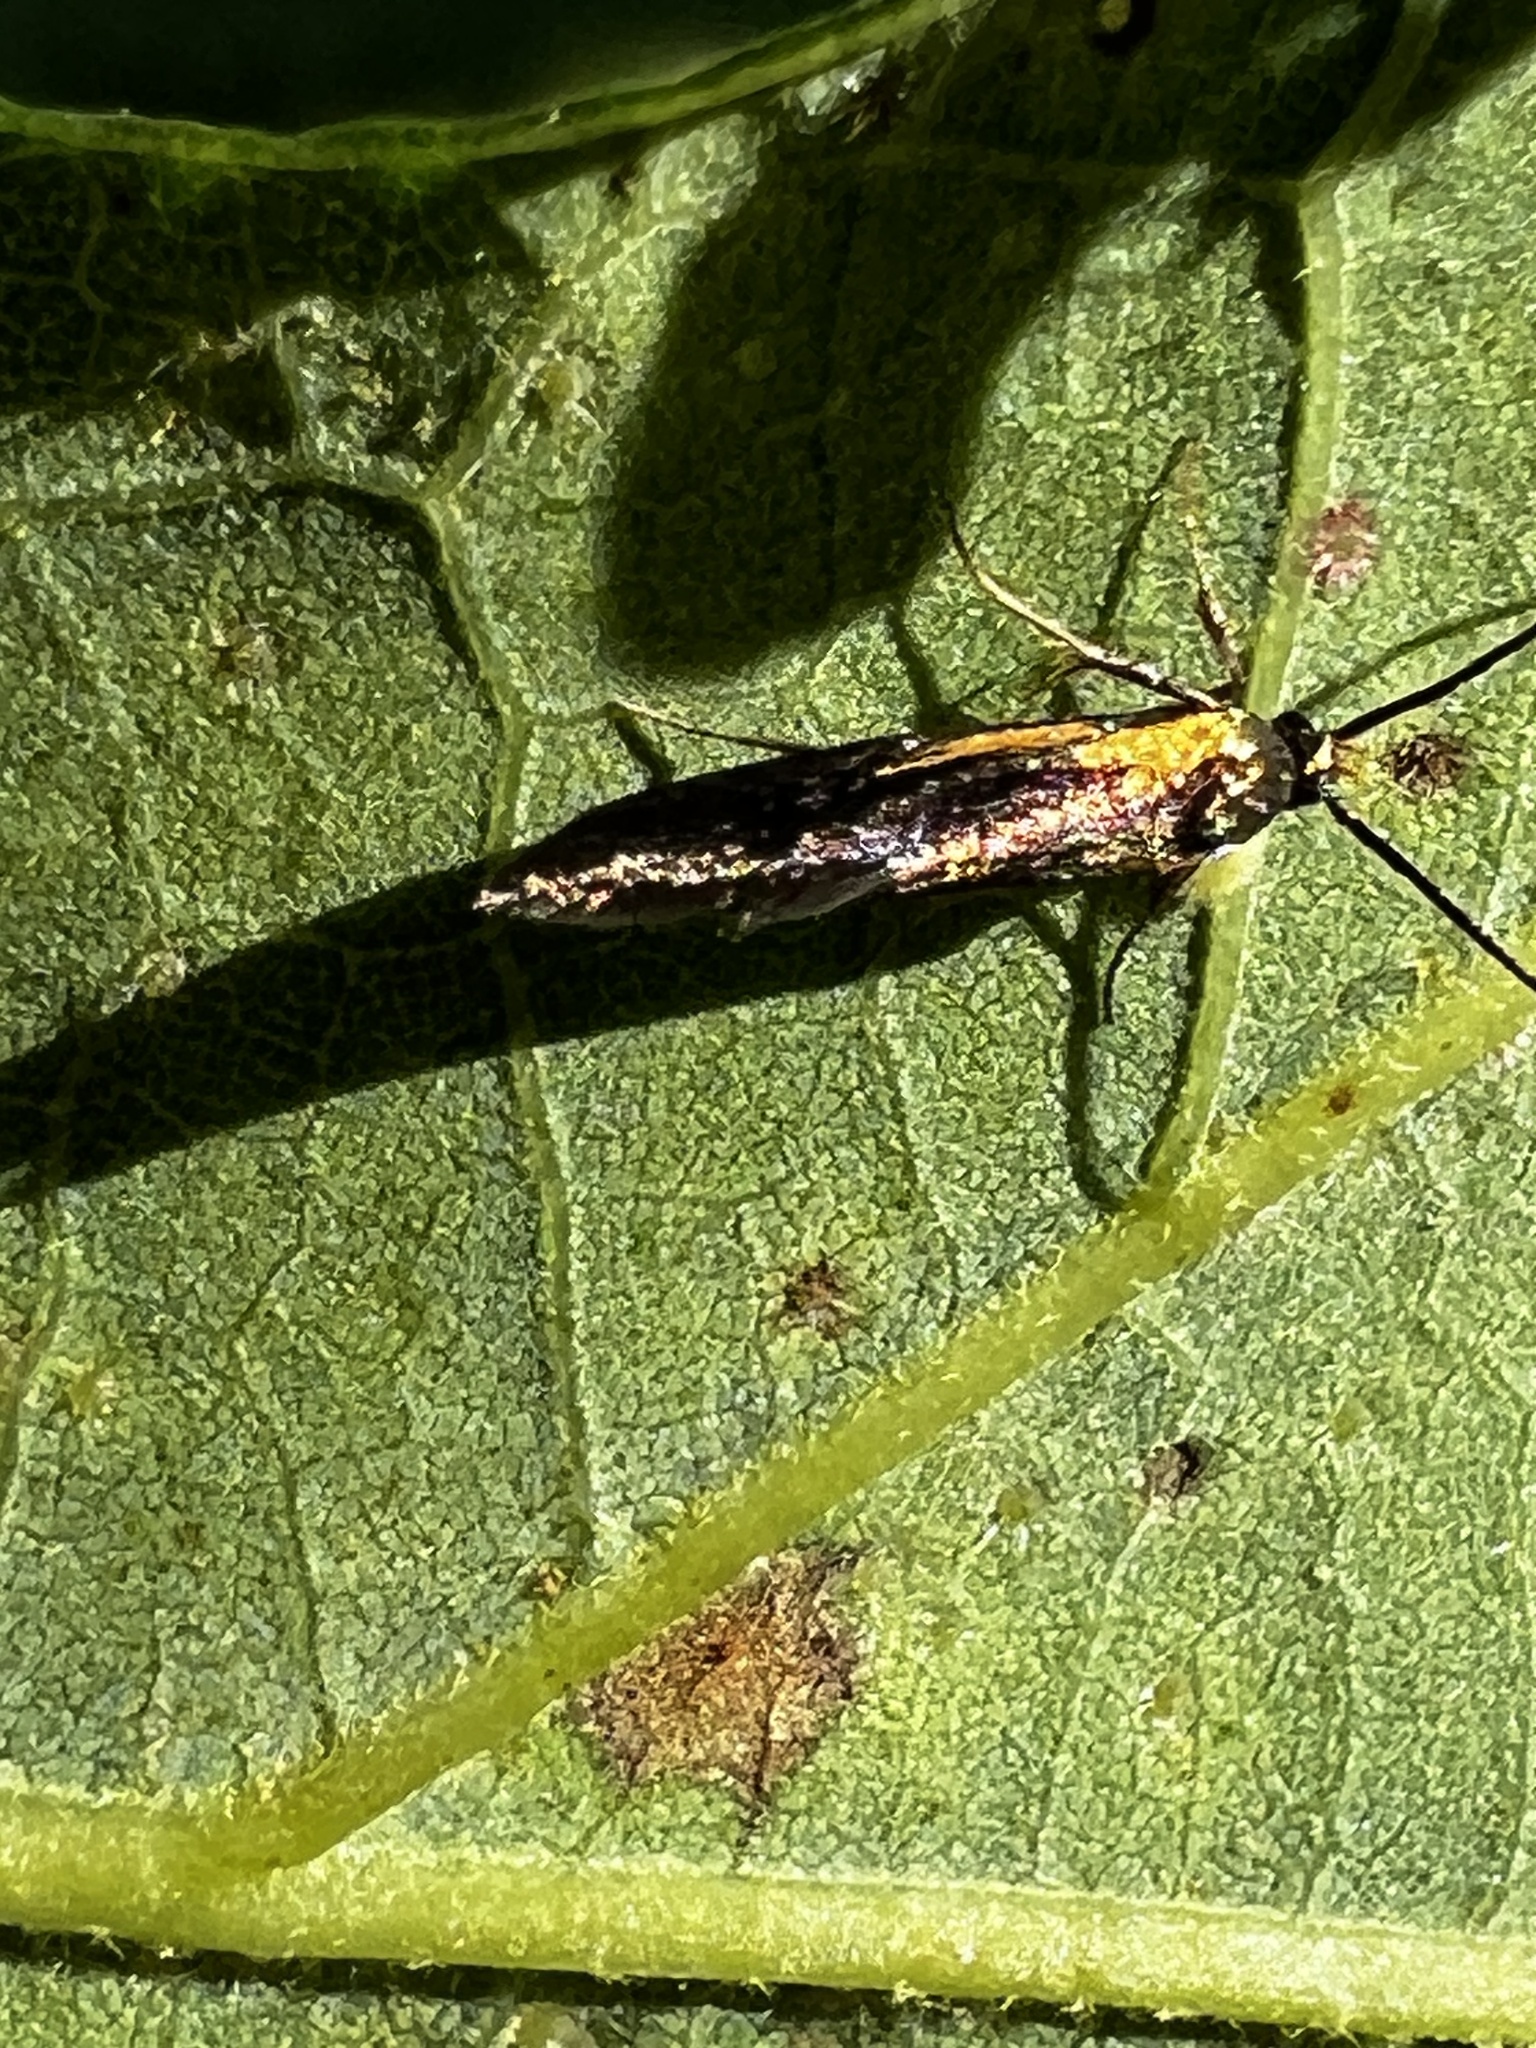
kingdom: Animalia
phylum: Arthropoda
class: Insecta
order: Lepidoptera
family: Oecophoridae
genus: Mathildana
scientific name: Mathildana newmanella
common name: Newman's mathildana moth
